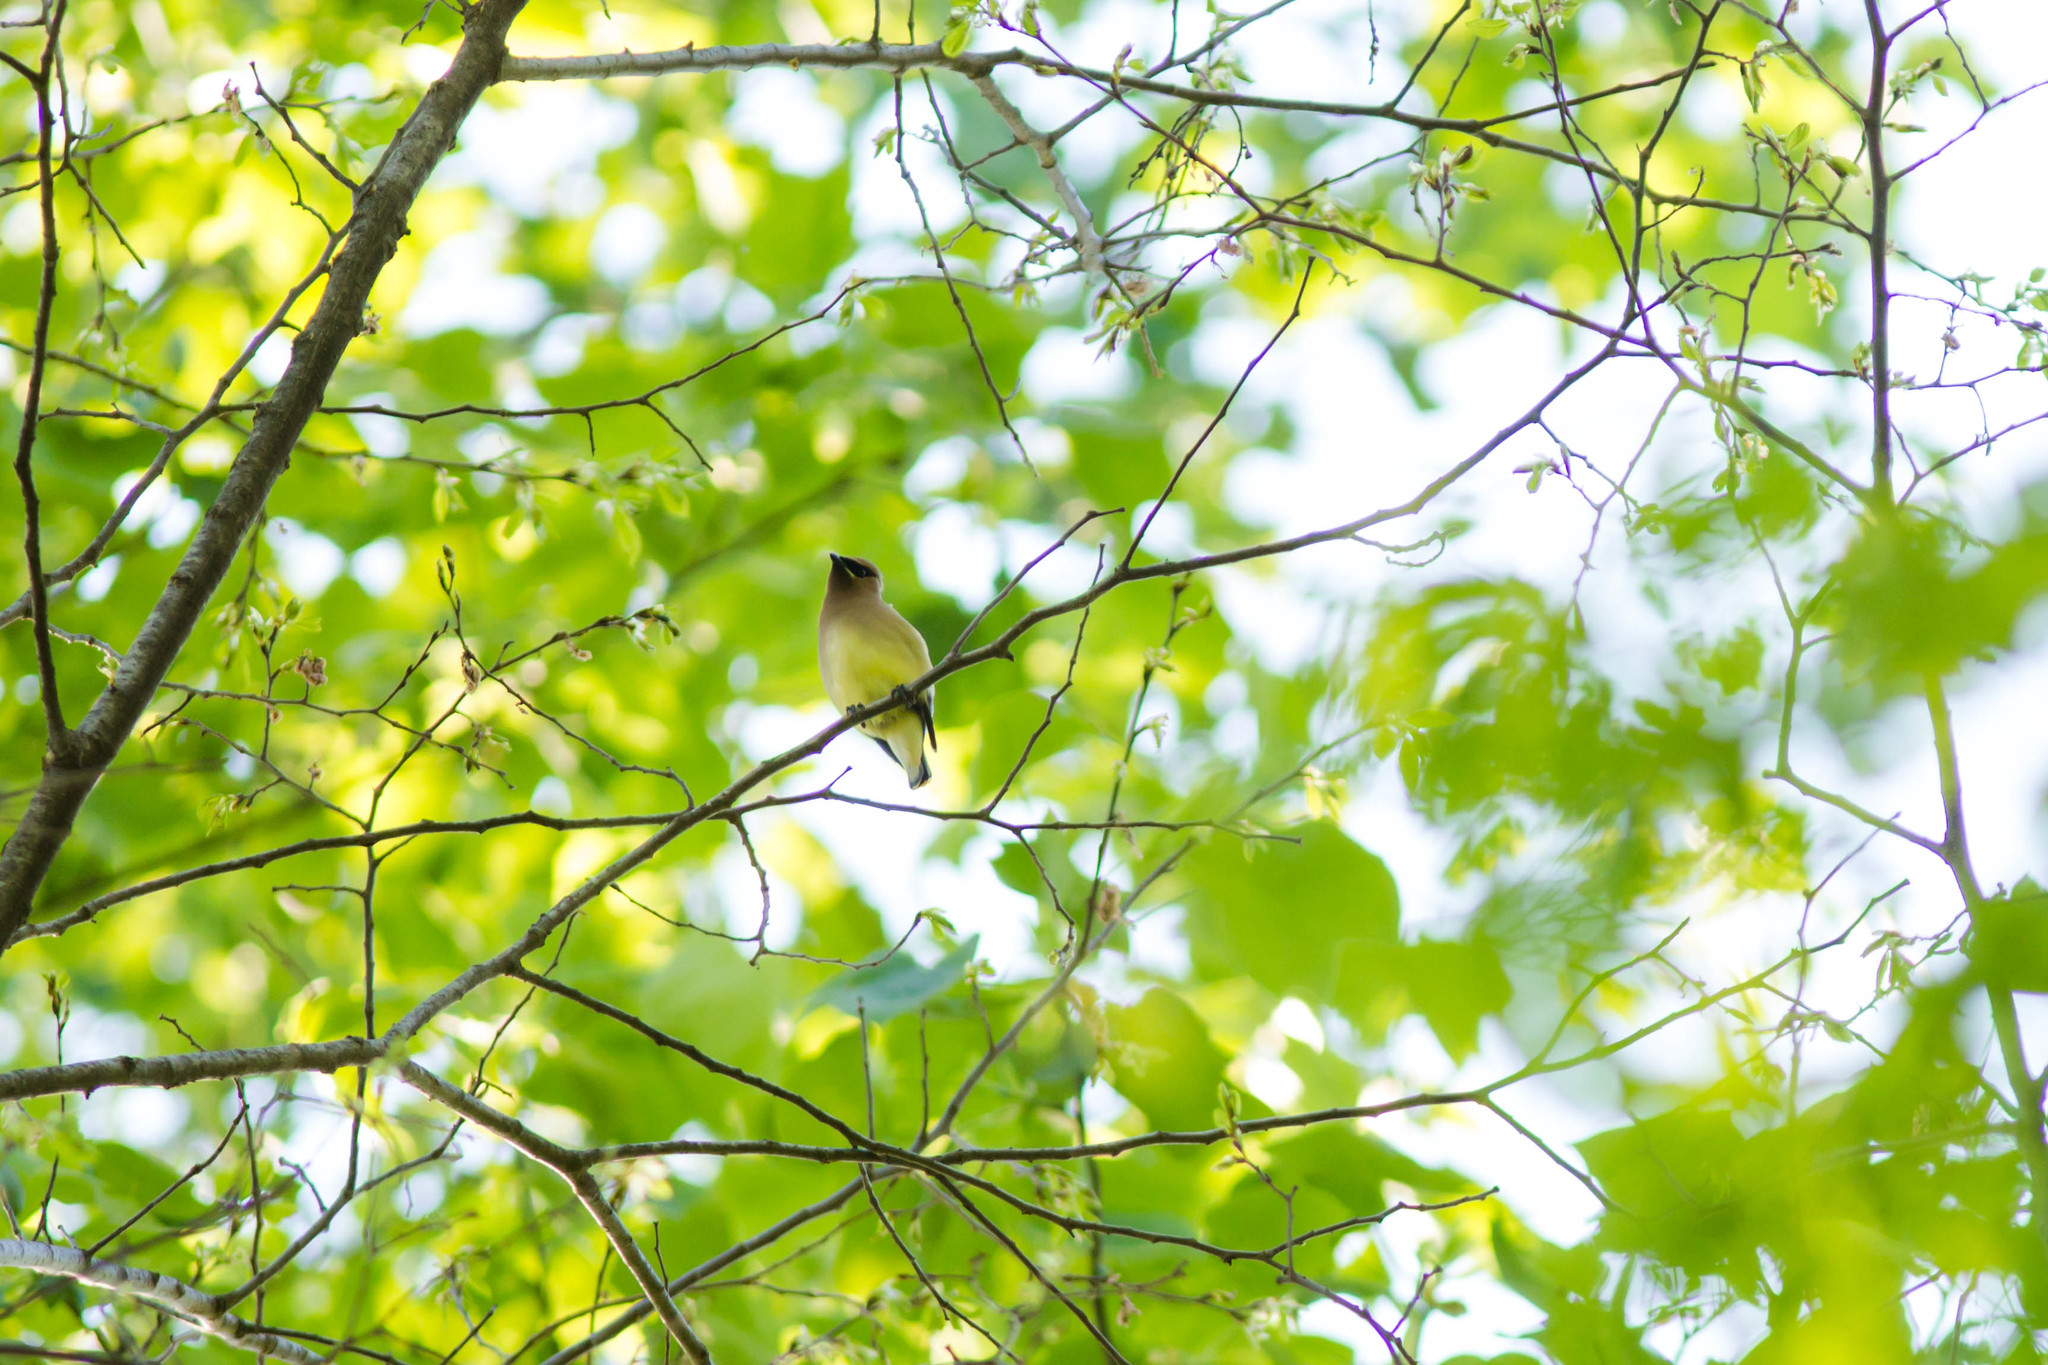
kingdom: Animalia
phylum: Chordata
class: Aves
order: Passeriformes
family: Bombycillidae
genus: Bombycilla
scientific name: Bombycilla cedrorum
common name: Cedar waxwing
